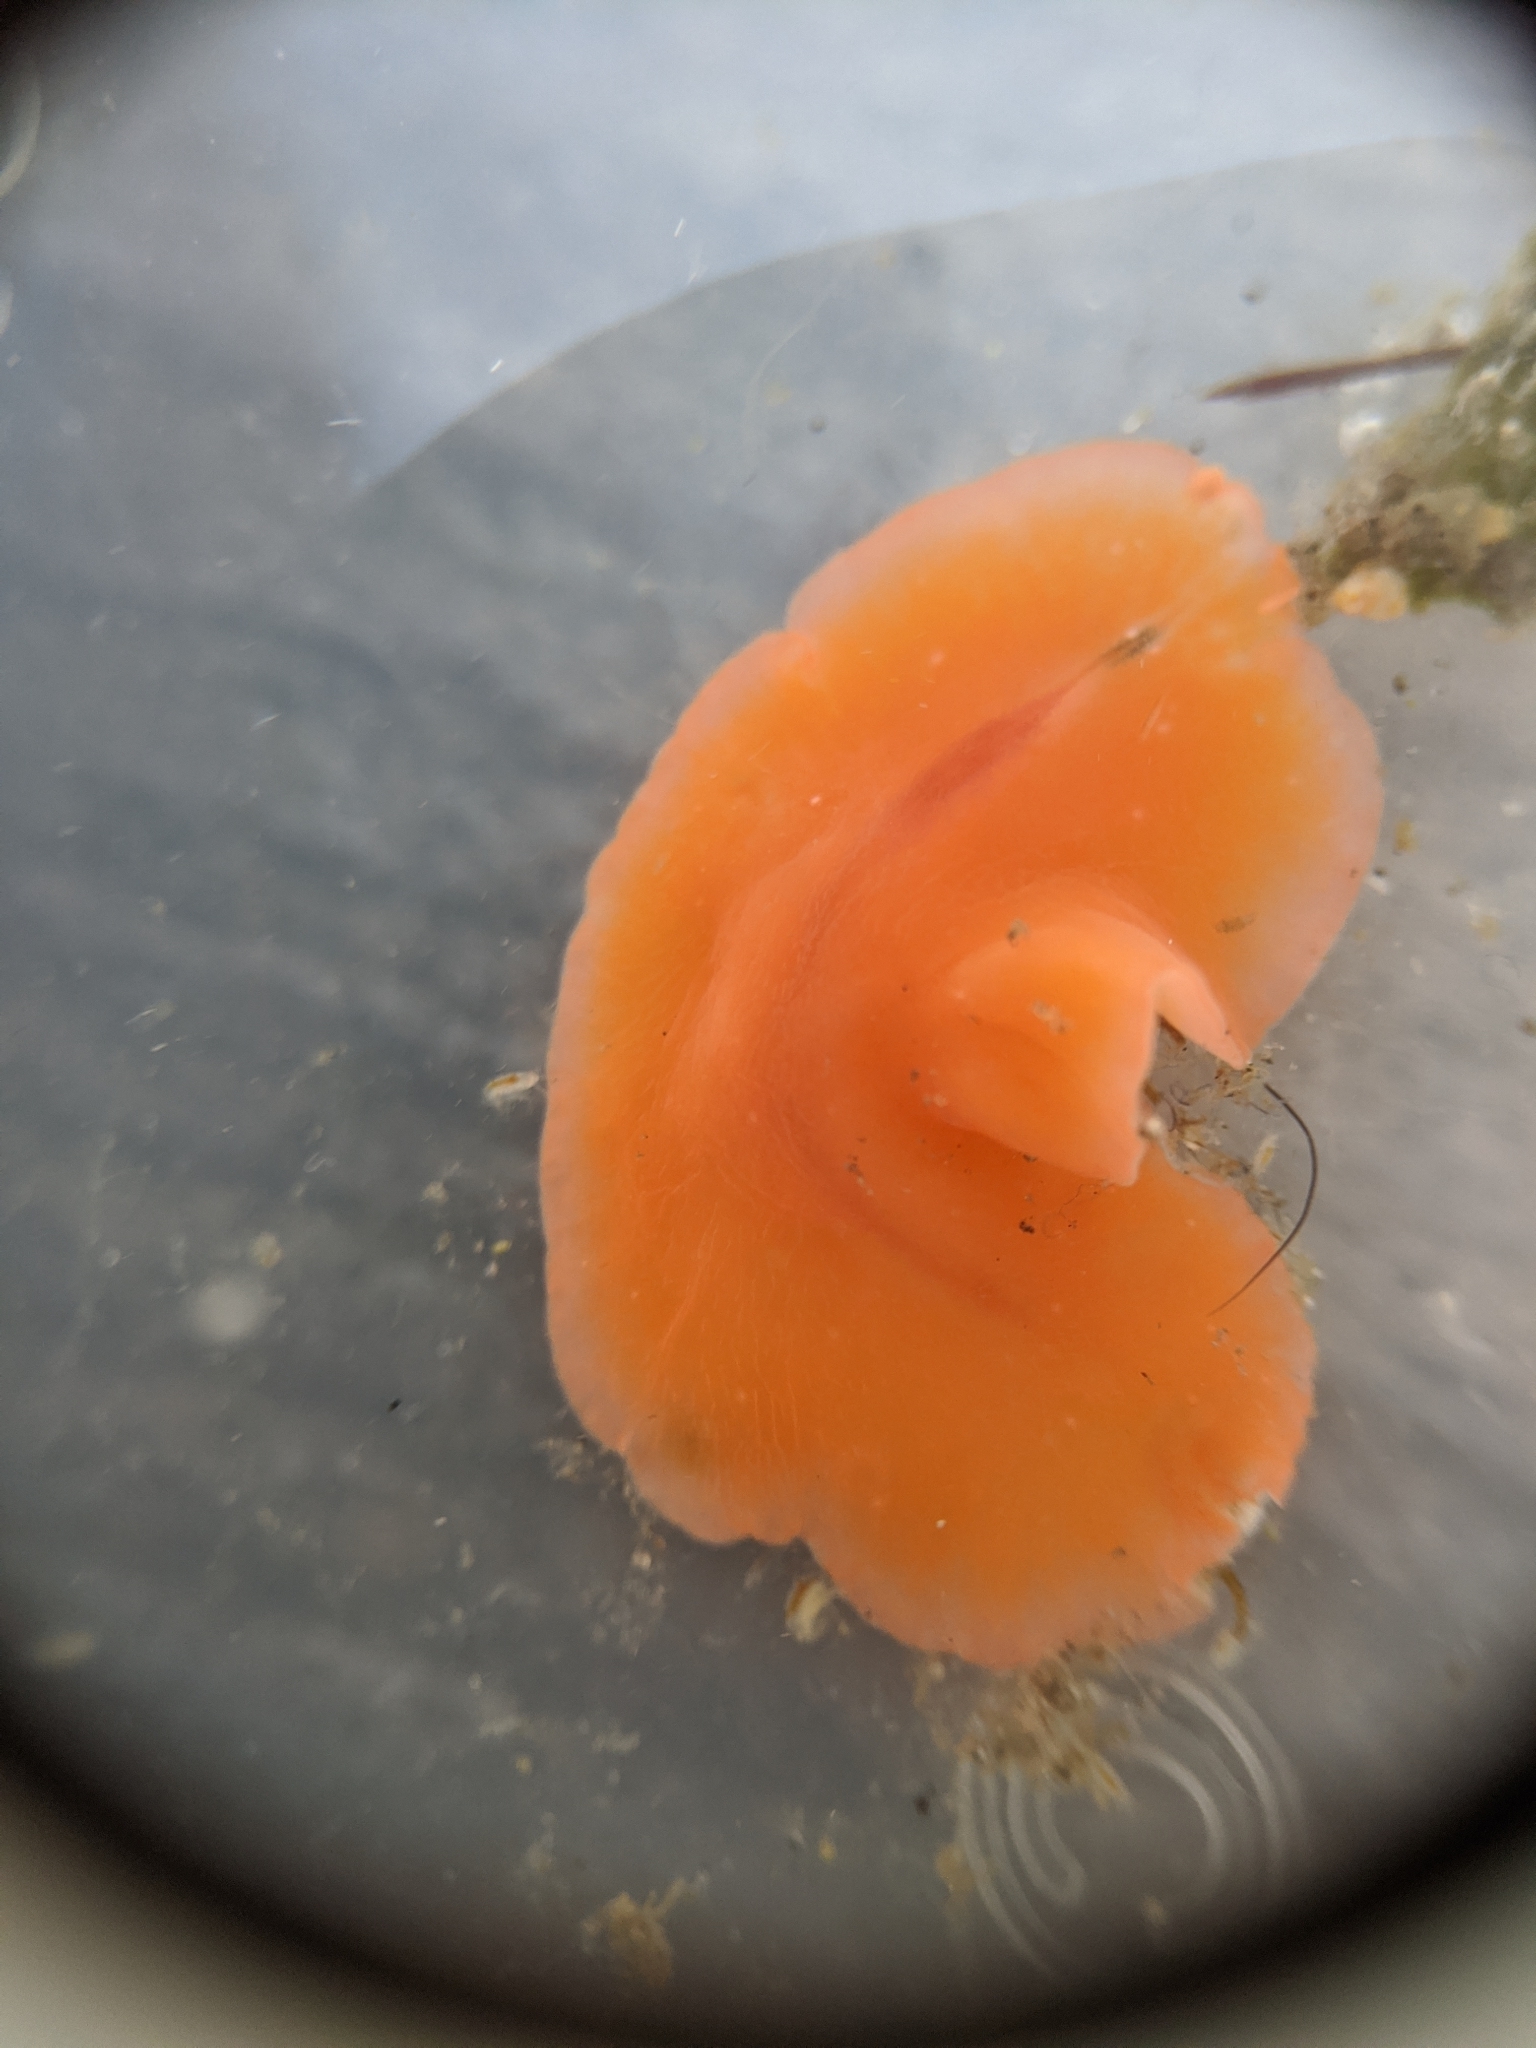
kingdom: Animalia
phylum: Platyhelminthes
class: Turbellaria
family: Euryleptidae
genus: Eurylepta
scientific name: Eurylepta aurantiaca
